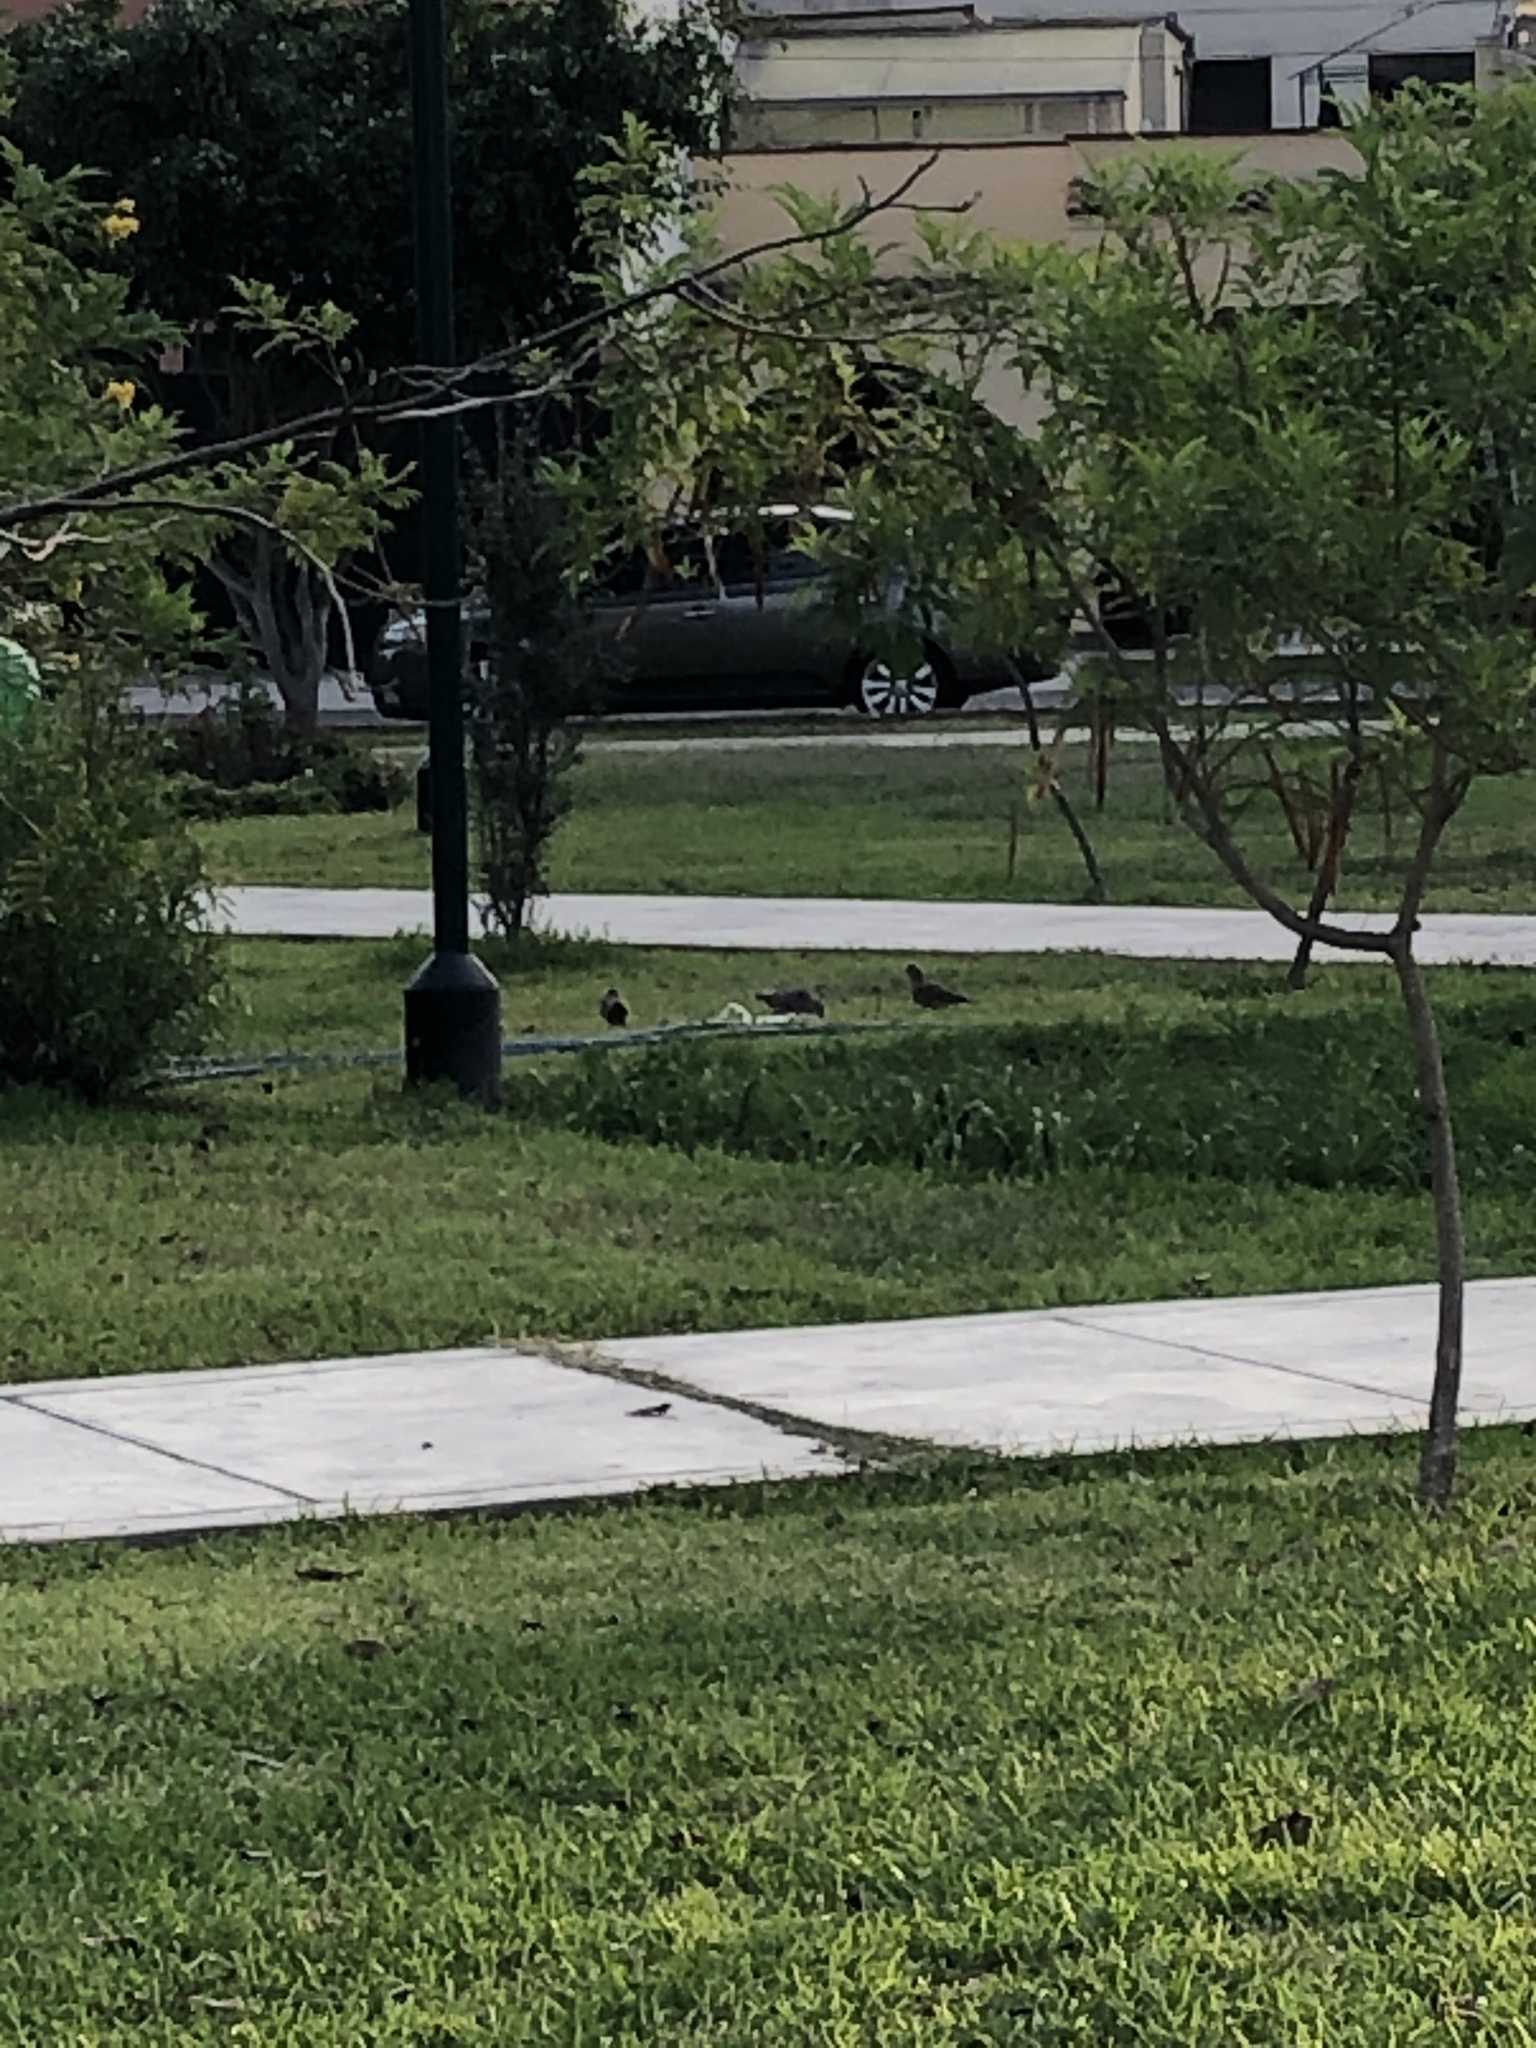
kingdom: Animalia
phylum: Chordata
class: Aves
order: Columbiformes
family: Columbidae
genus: Zenaida
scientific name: Zenaida meloda
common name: West peruvian dove
